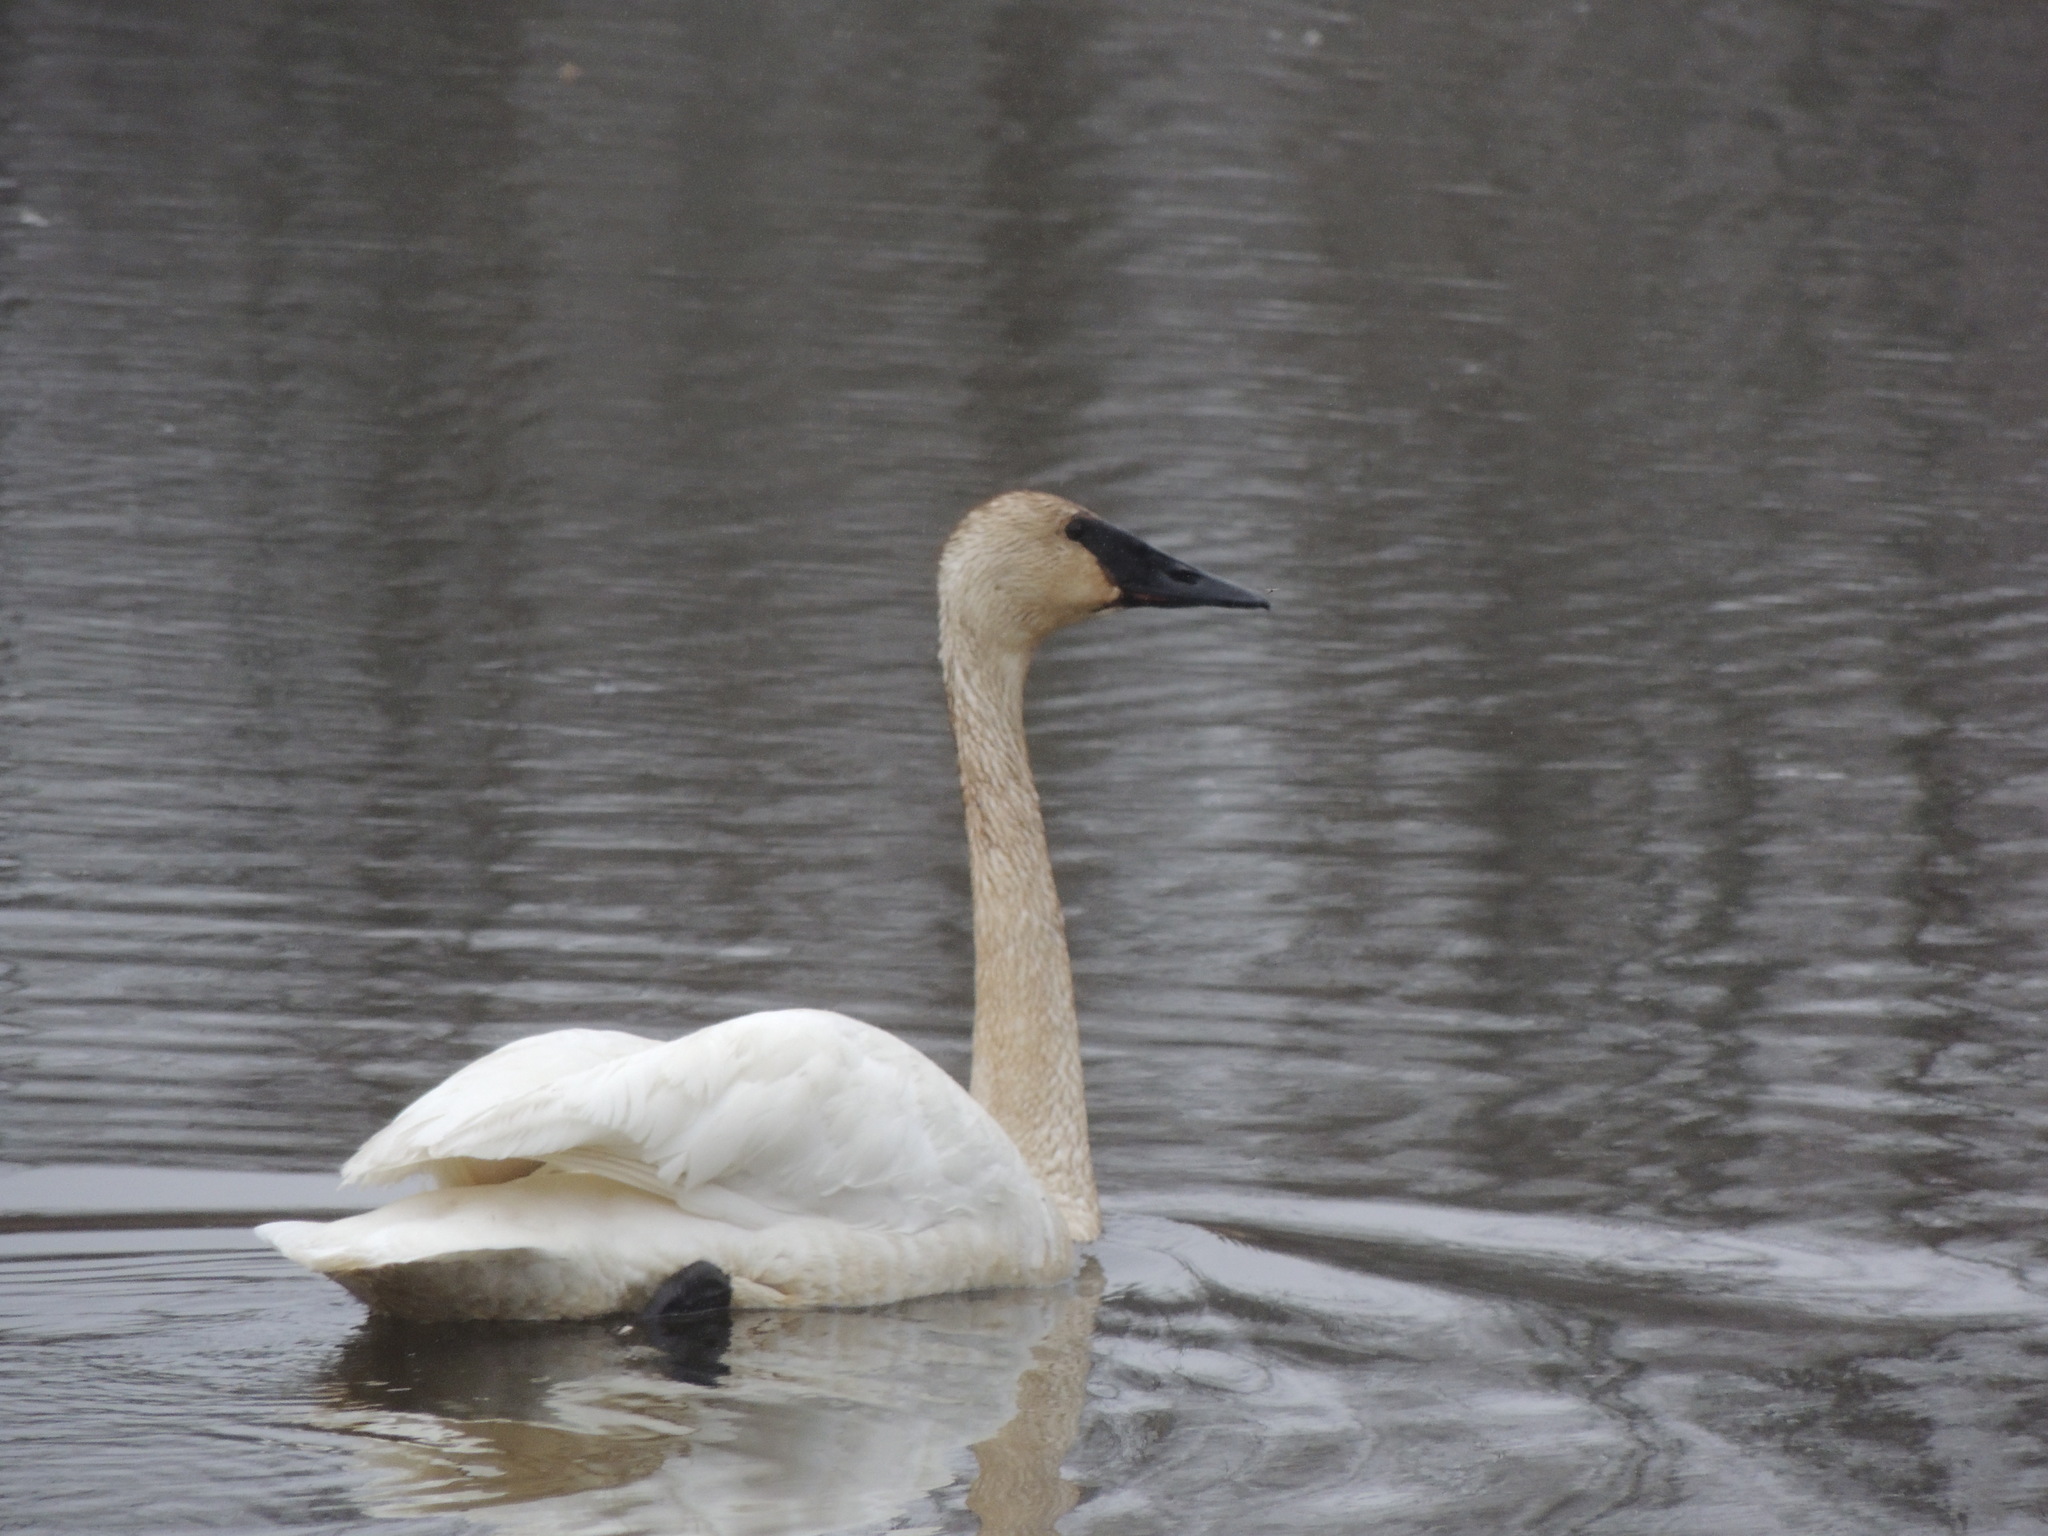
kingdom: Animalia
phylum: Chordata
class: Aves
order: Anseriformes
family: Anatidae
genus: Cygnus
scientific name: Cygnus buccinator
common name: Trumpeter swan
